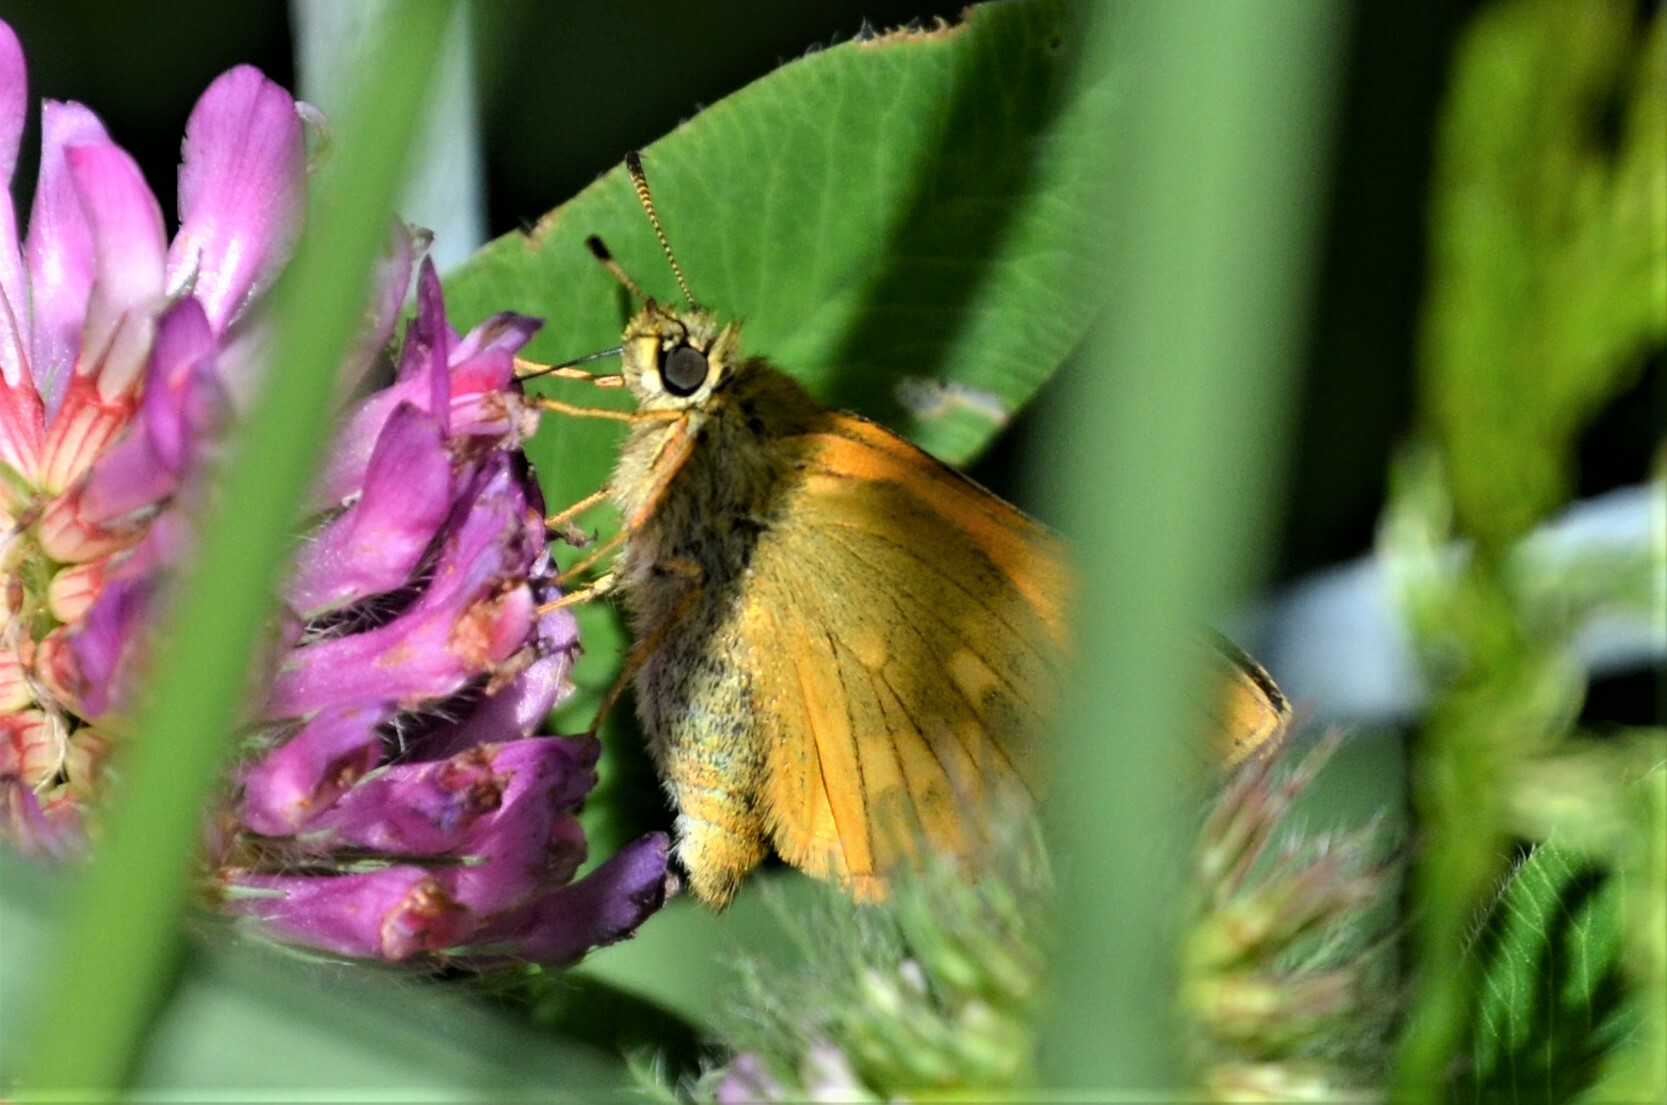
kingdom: Animalia
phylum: Arthropoda
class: Insecta
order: Lepidoptera
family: Hesperiidae
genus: Ochlodes
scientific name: Ochlodes venata
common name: Large skipper
